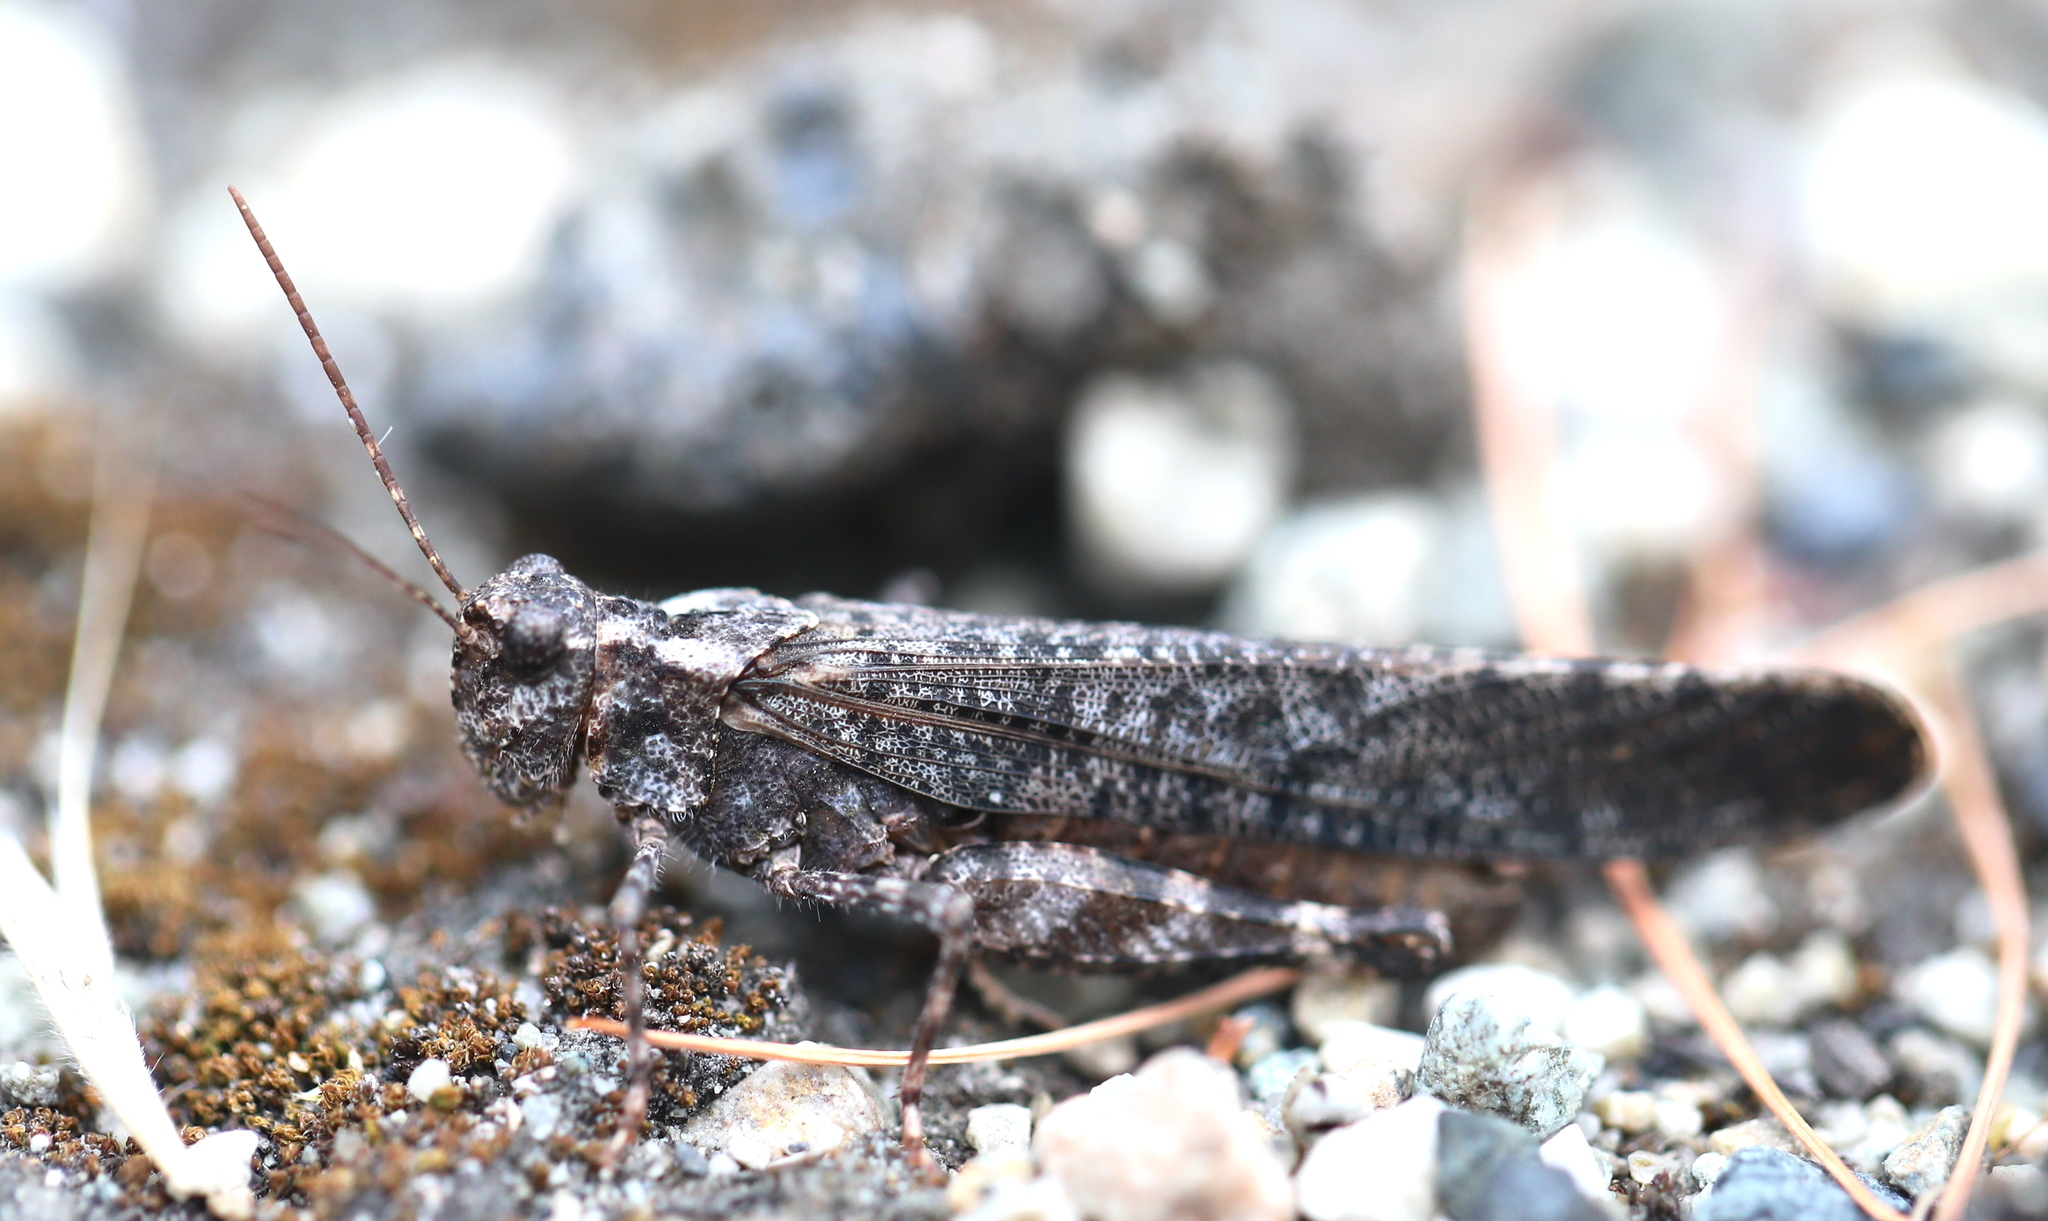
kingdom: Animalia
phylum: Arthropoda
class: Insecta
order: Orthoptera
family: Acrididae
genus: Trimerotropis
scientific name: Trimerotropis verruculata
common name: Crackling forest grasshopper
